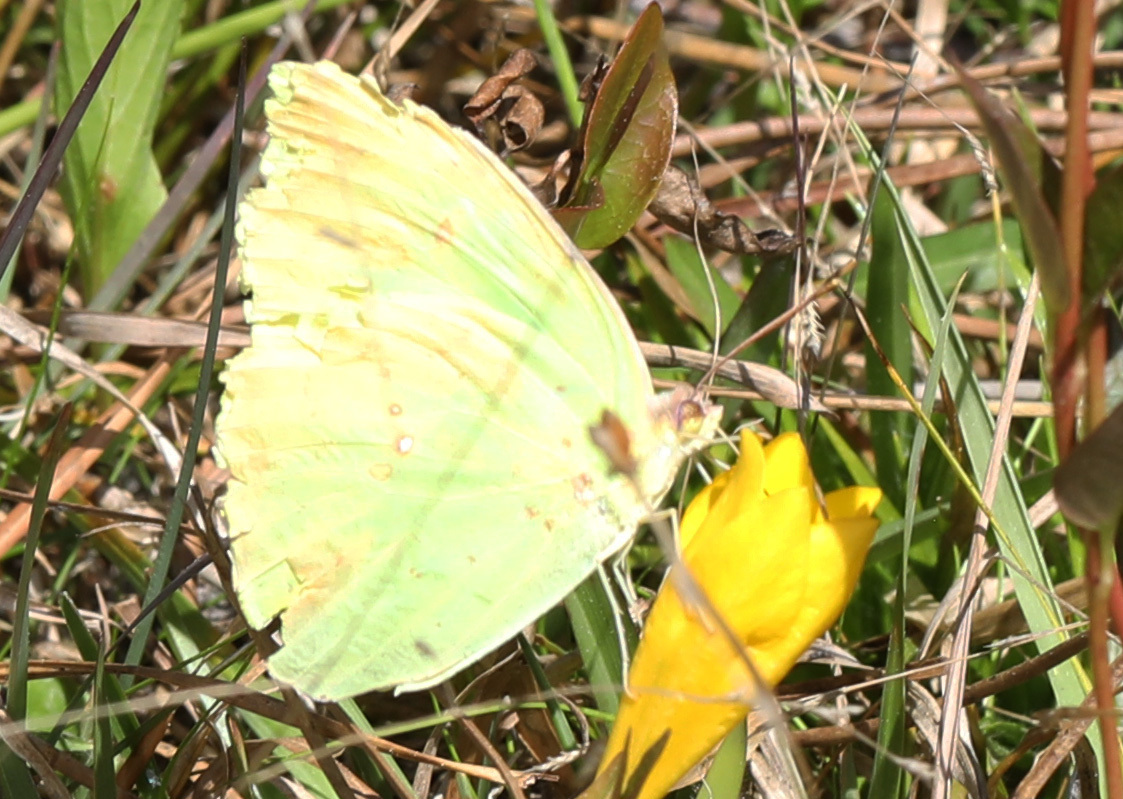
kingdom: Animalia
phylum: Arthropoda
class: Insecta
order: Lepidoptera
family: Pieridae
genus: Phoebis
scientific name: Phoebis sennae
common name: Cloudless sulphur
